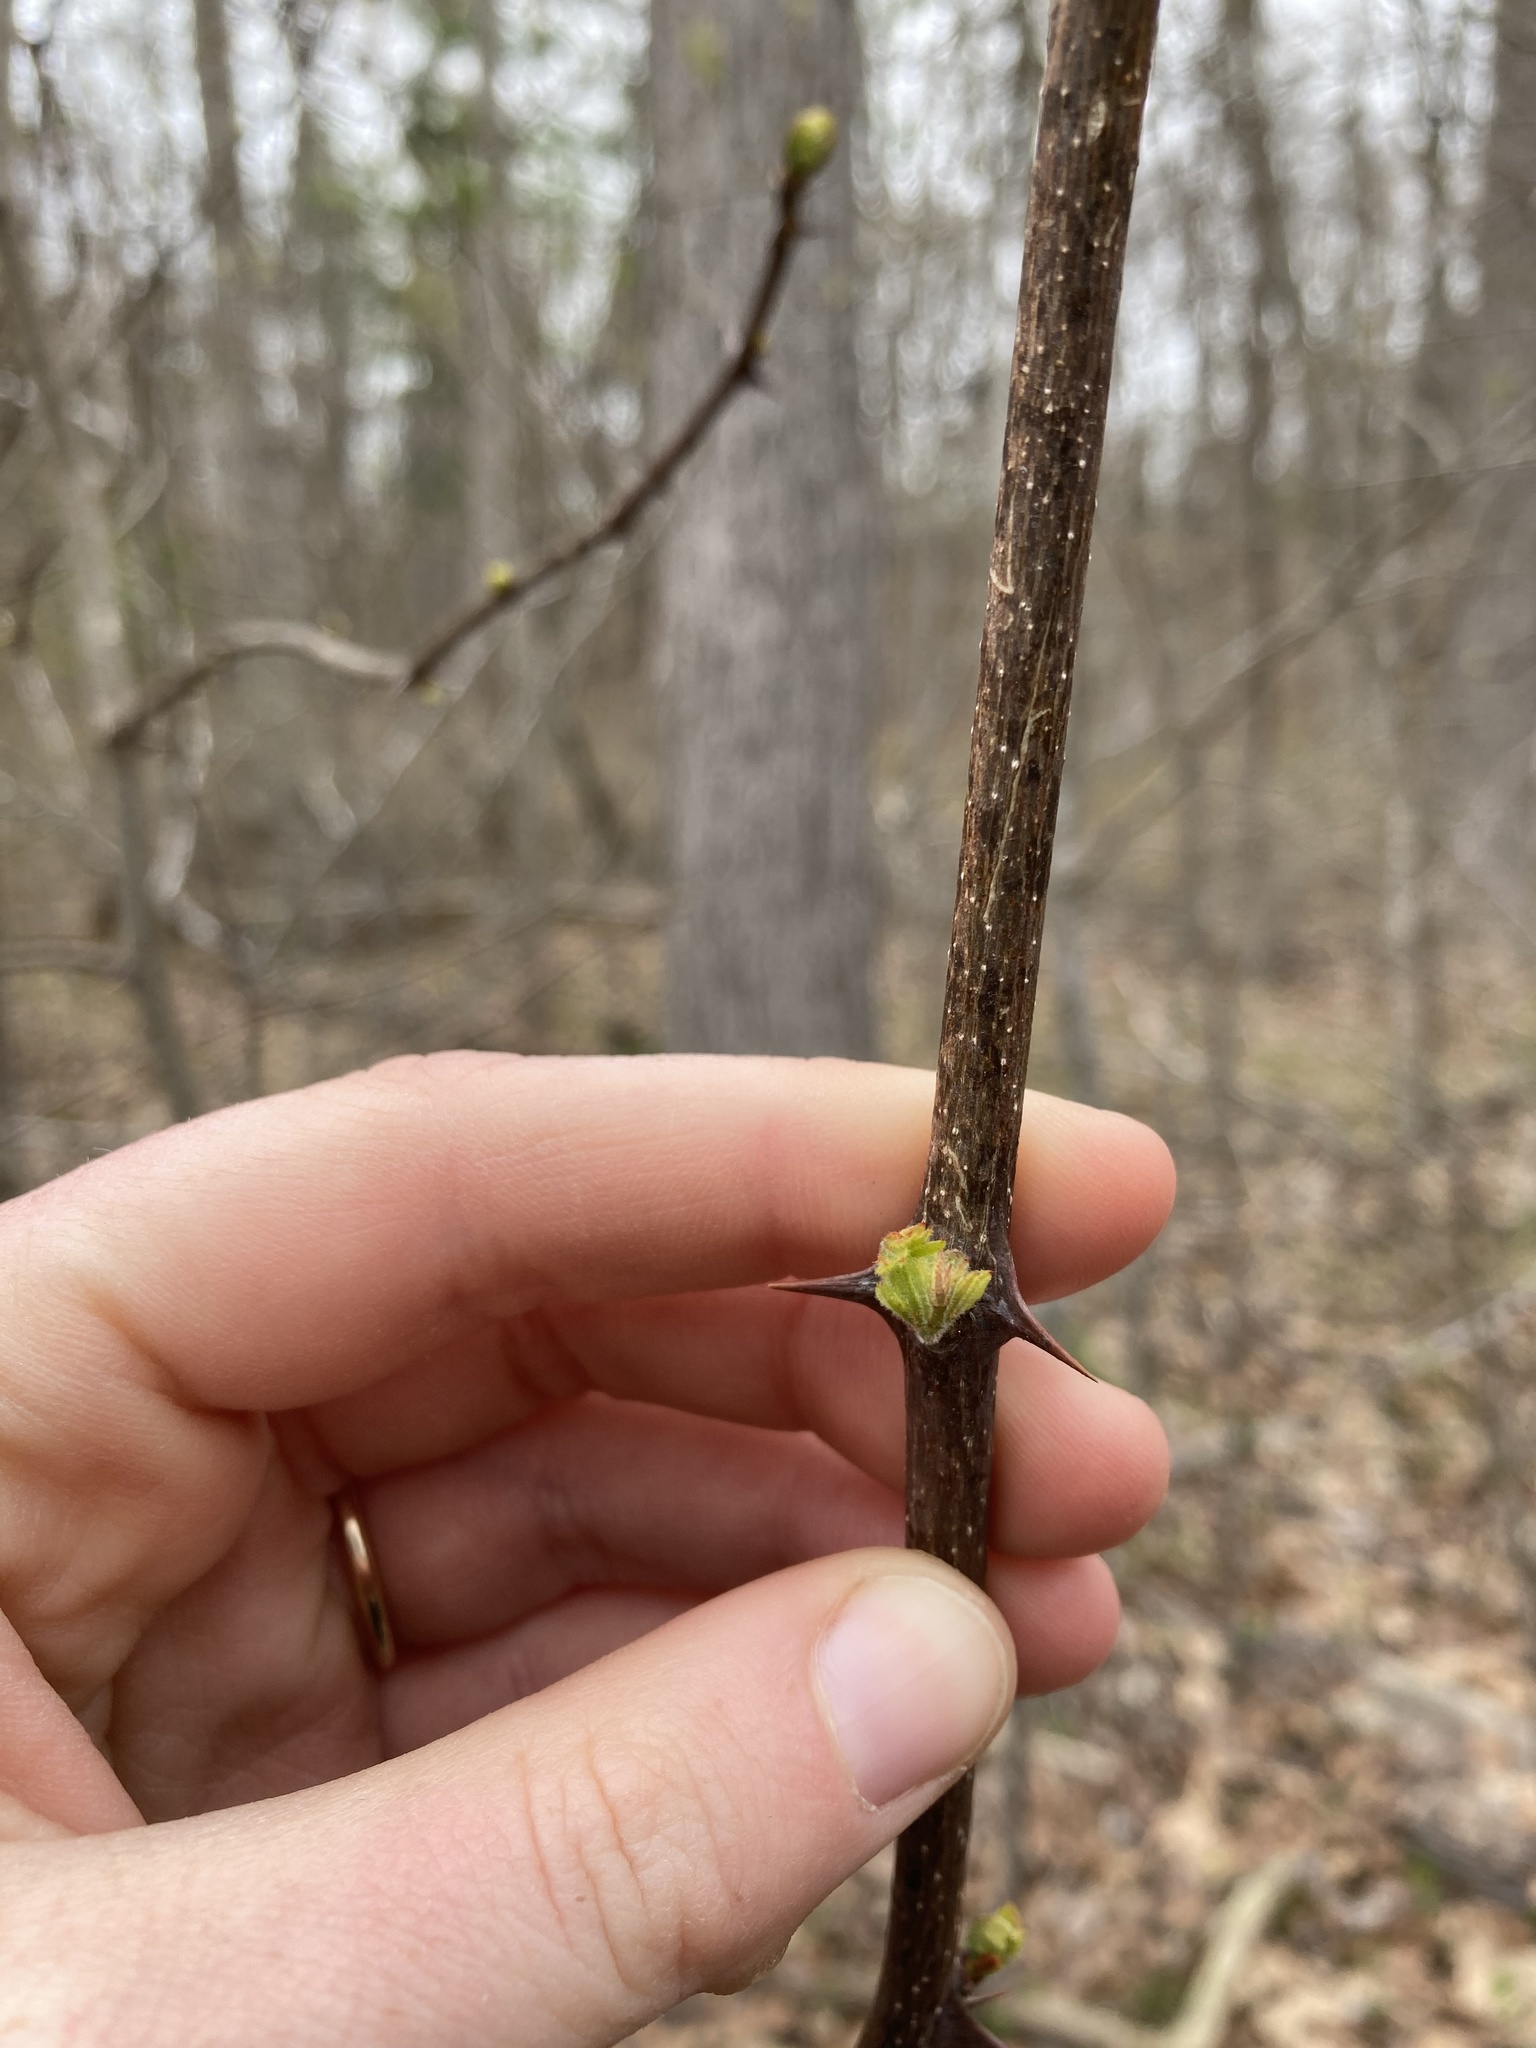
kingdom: Plantae
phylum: Tracheophyta
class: Magnoliopsida
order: Sapindales
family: Rutaceae
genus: Zanthoxylum
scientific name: Zanthoxylum americanum
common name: Northern prickly-ash
